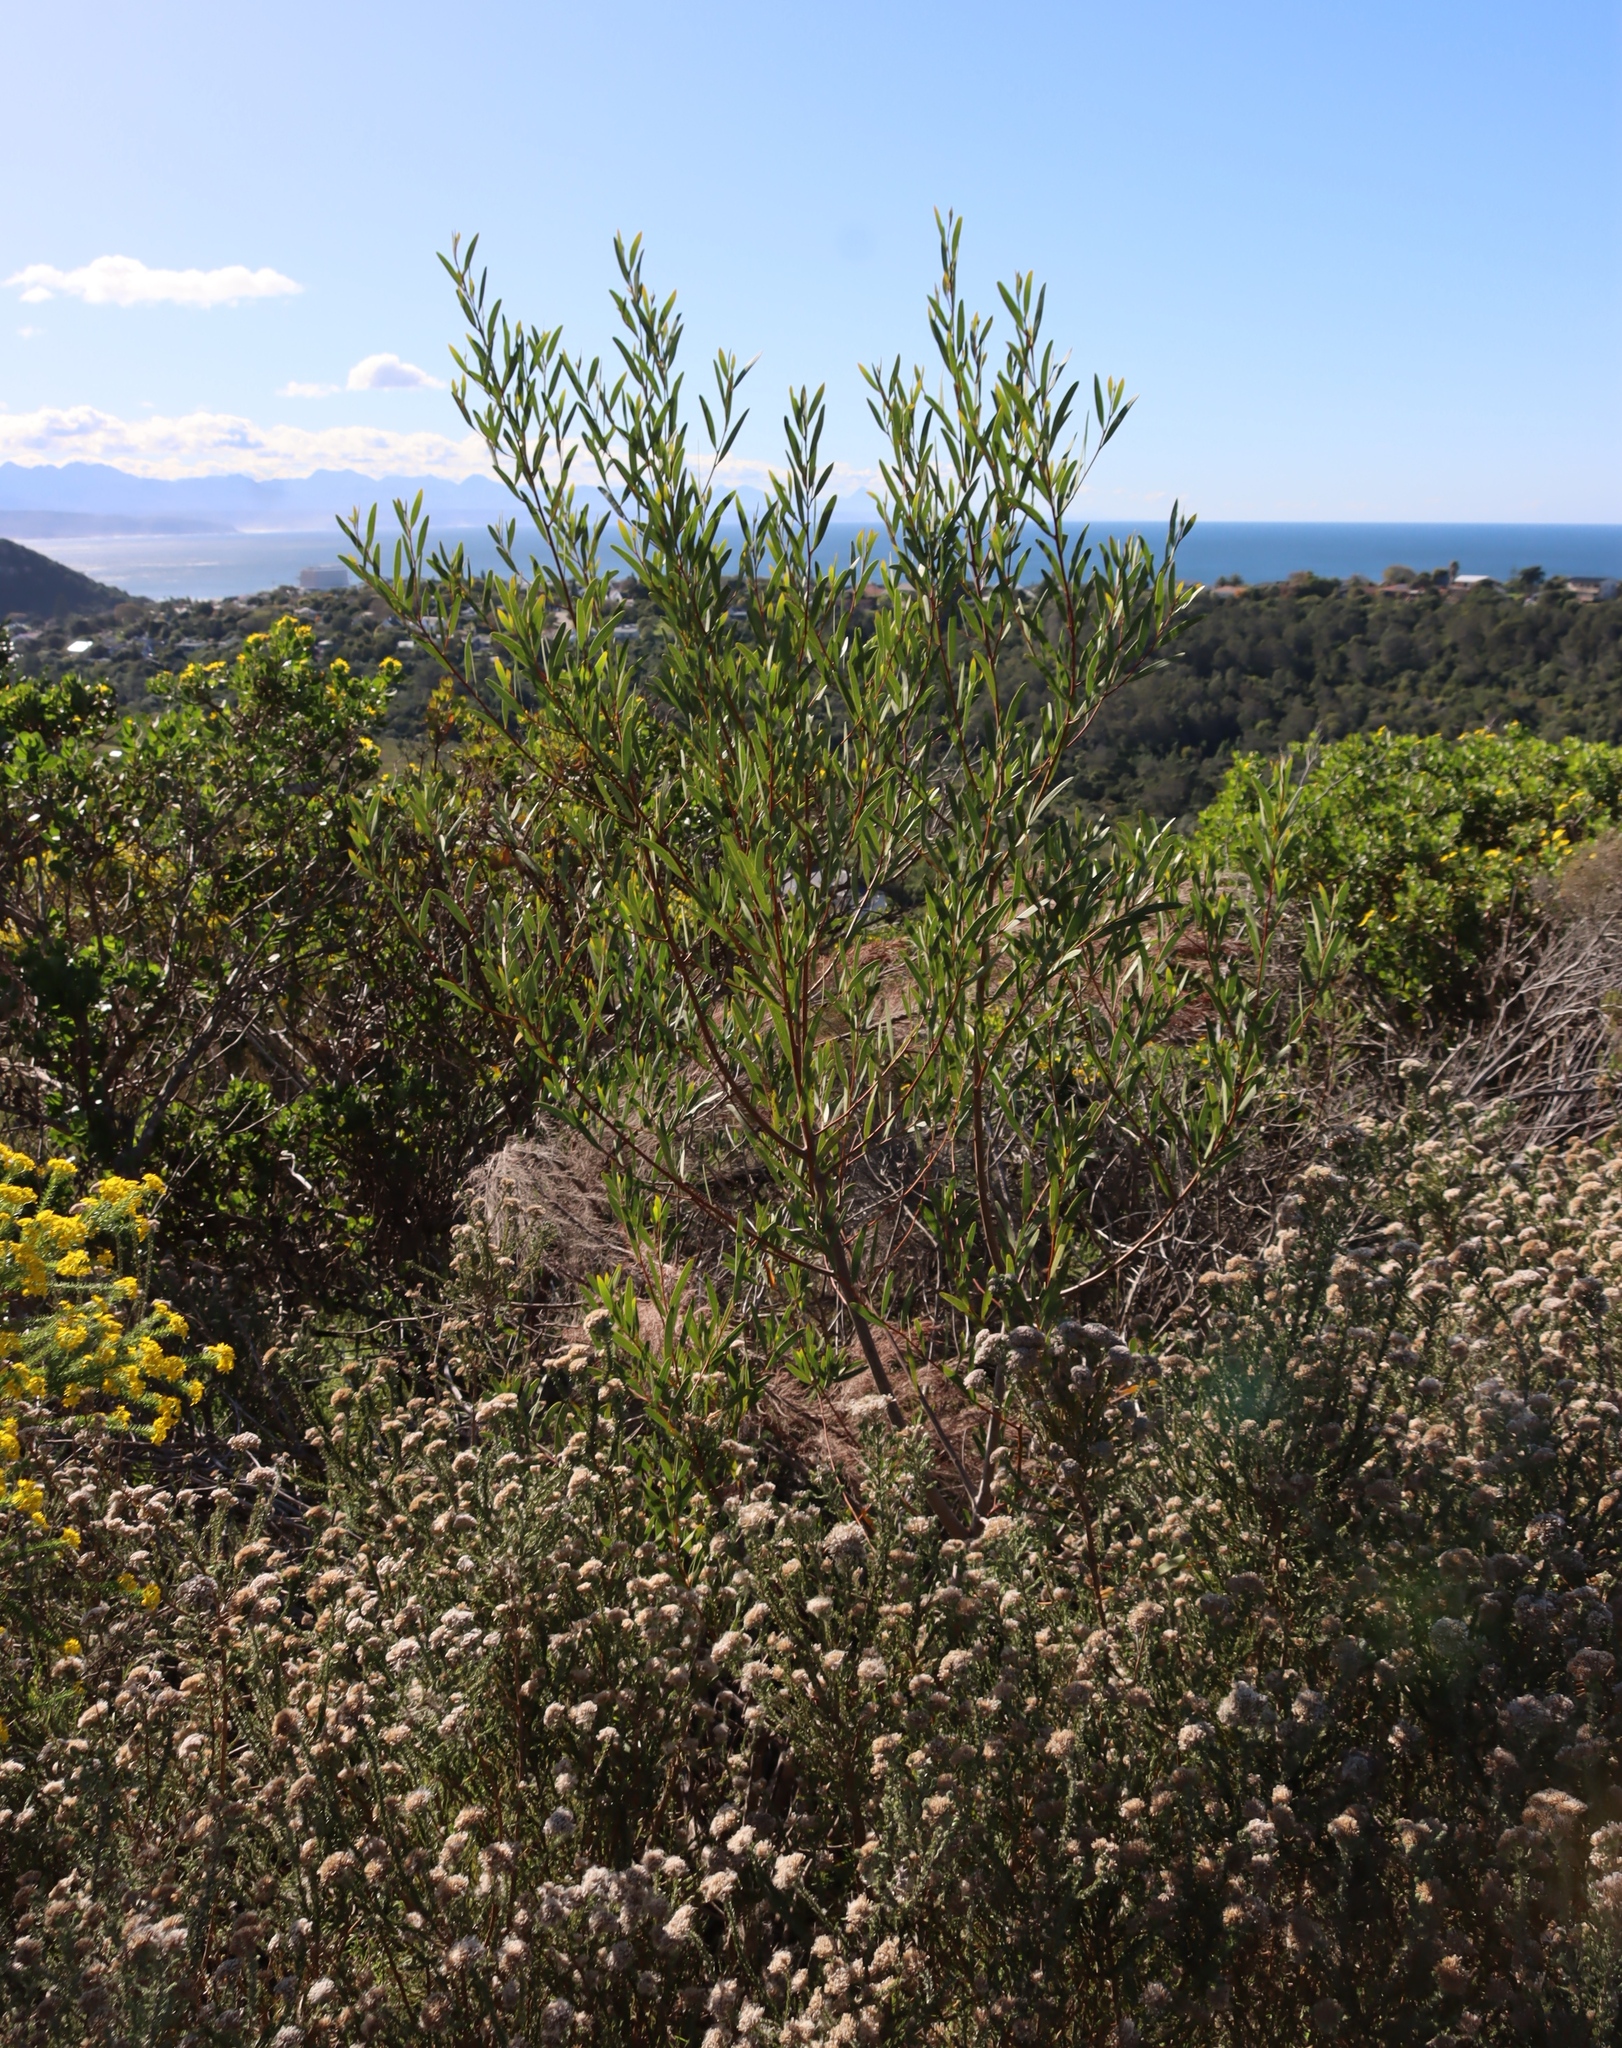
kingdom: Plantae
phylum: Tracheophyta
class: Magnoliopsida
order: Fabales
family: Fabaceae
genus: Acacia
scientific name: Acacia cyclops
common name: Coastal wattle
